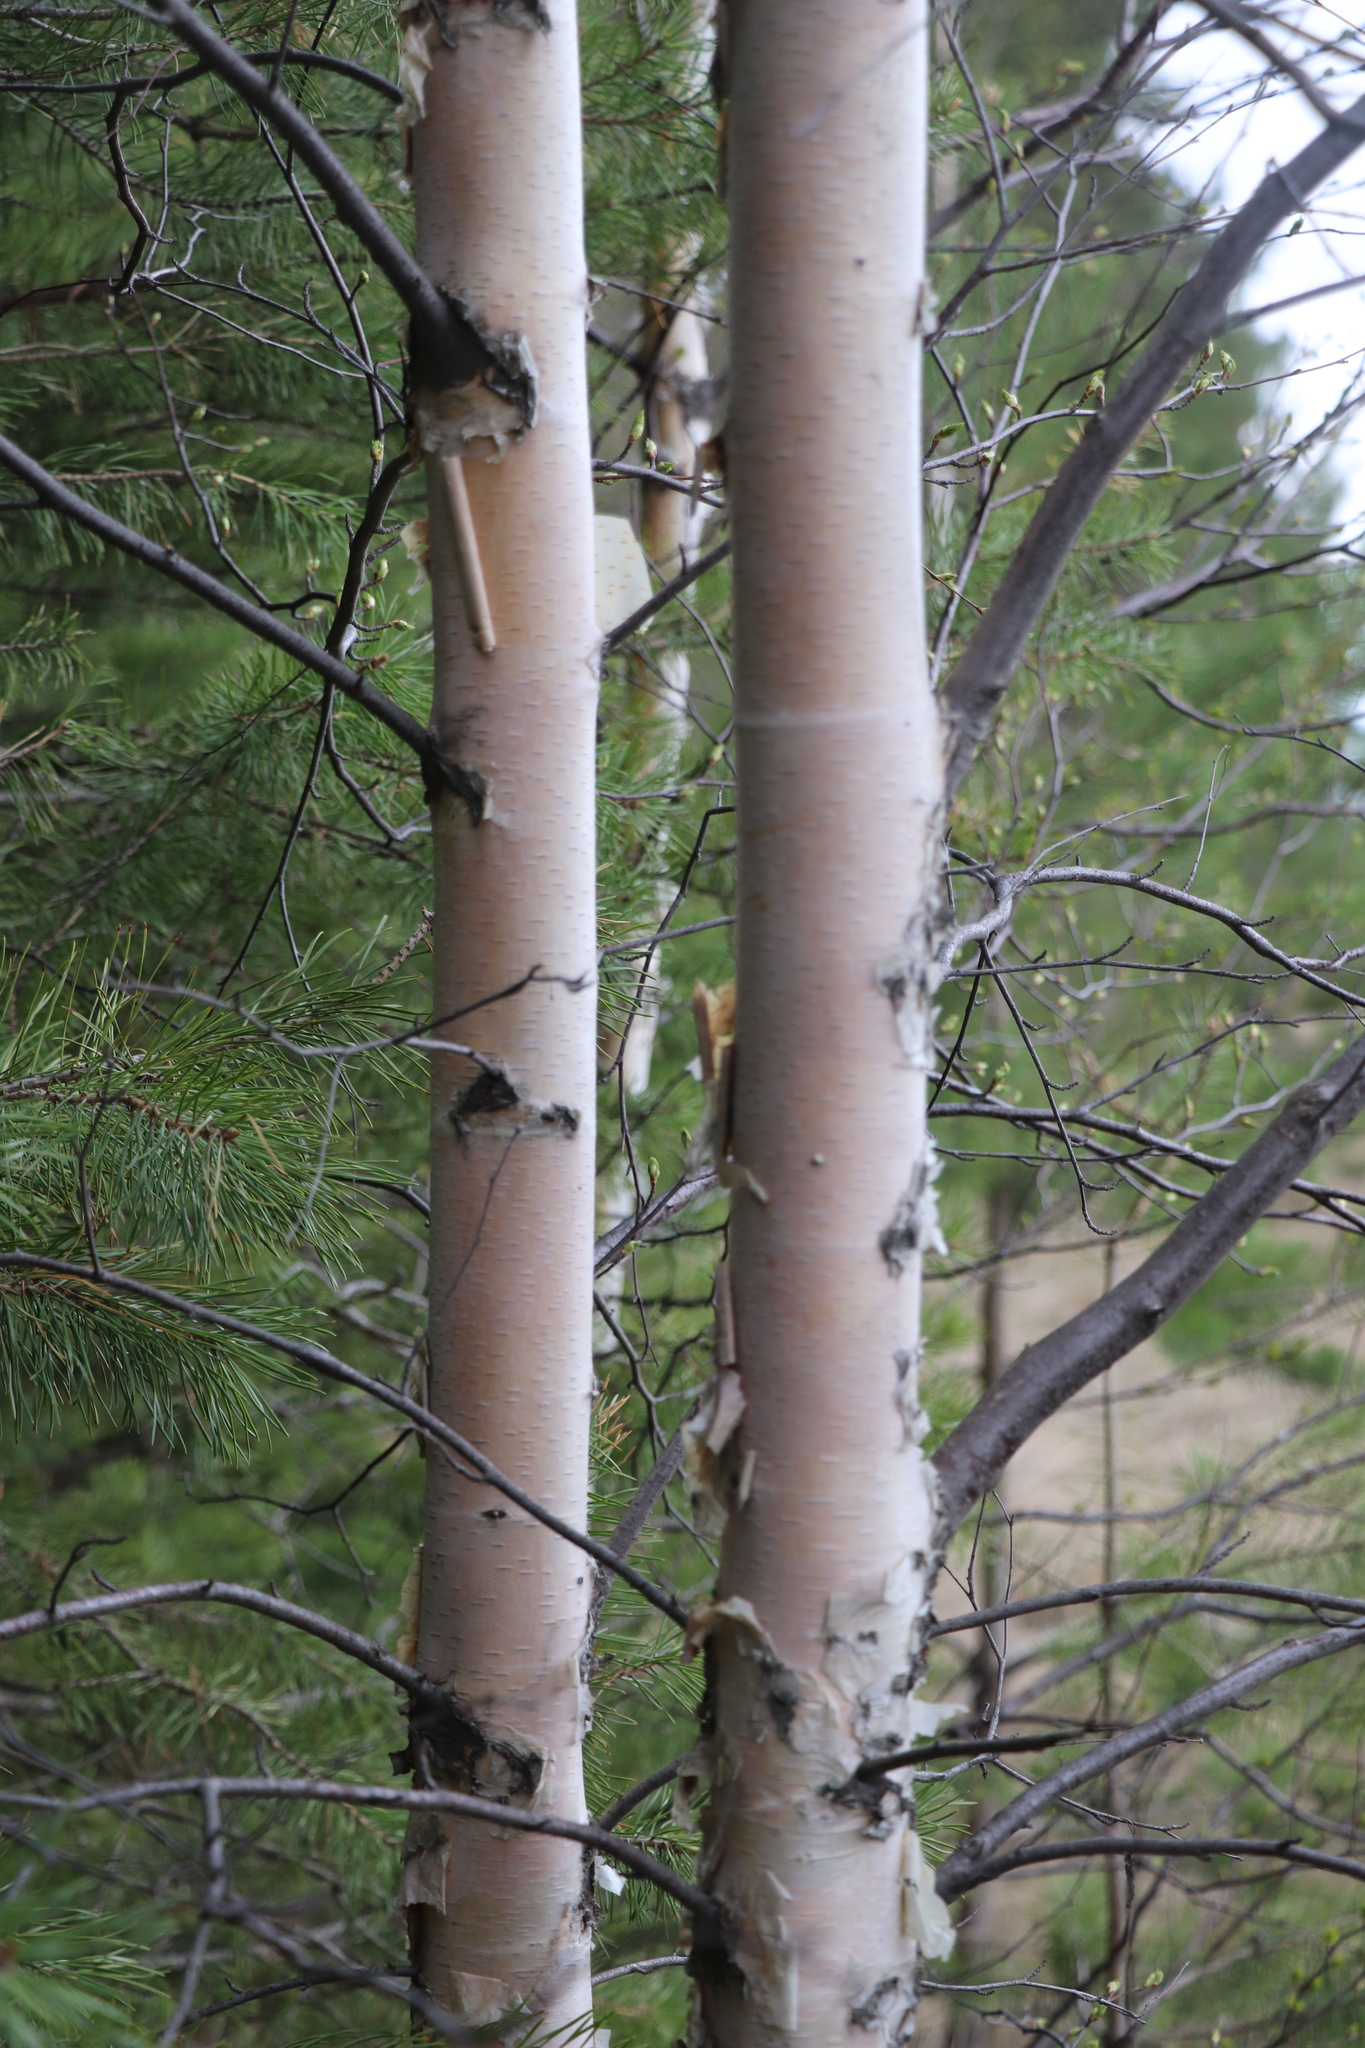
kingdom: Plantae
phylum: Tracheophyta
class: Magnoliopsida
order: Fagales
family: Betulaceae
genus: Betula
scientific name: Betula pendula
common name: Silver birch
